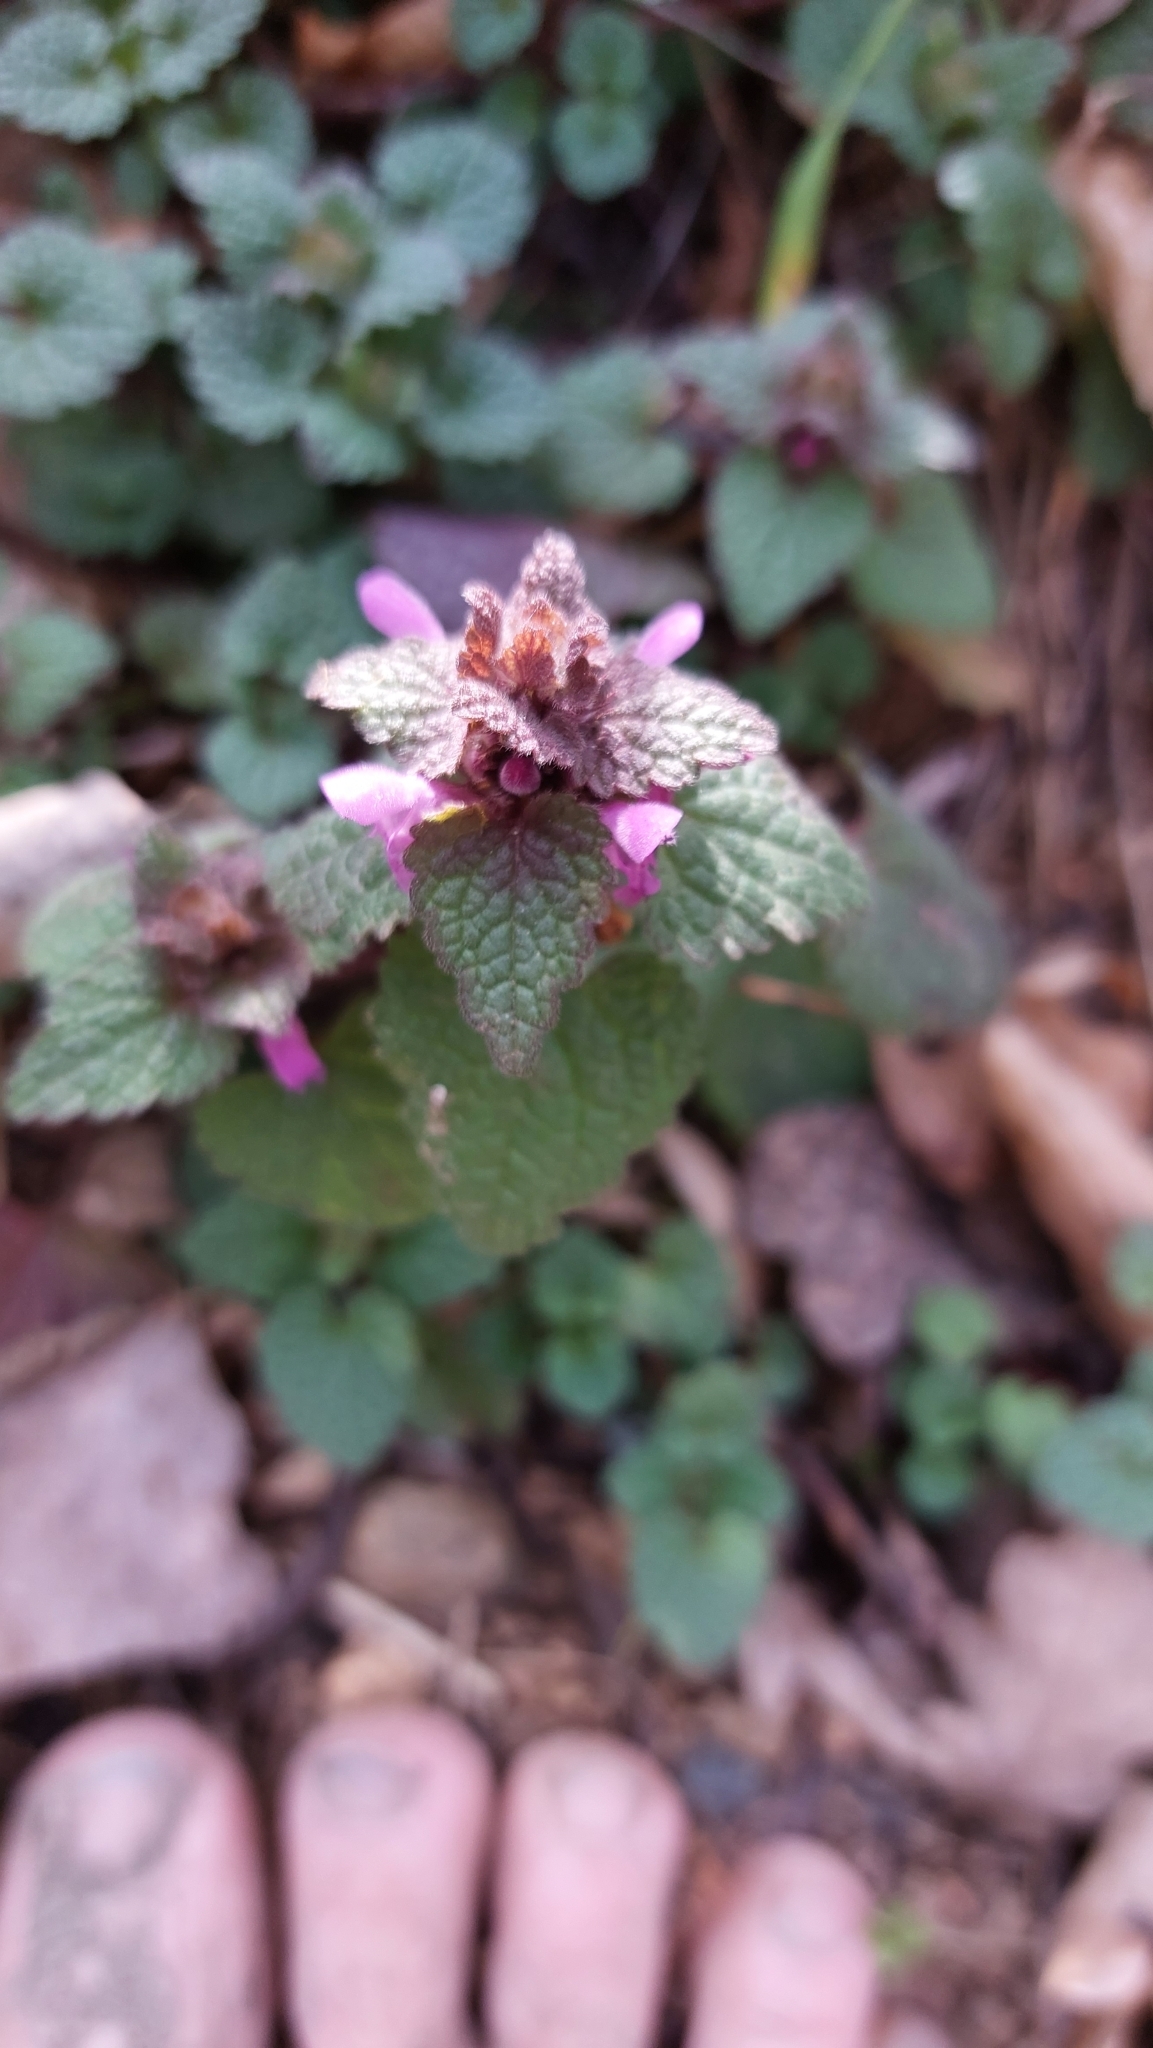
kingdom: Plantae
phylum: Tracheophyta
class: Magnoliopsida
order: Lamiales
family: Lamiaceae
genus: Lamium
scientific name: Lamium purpureum
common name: Red dead-nettle
